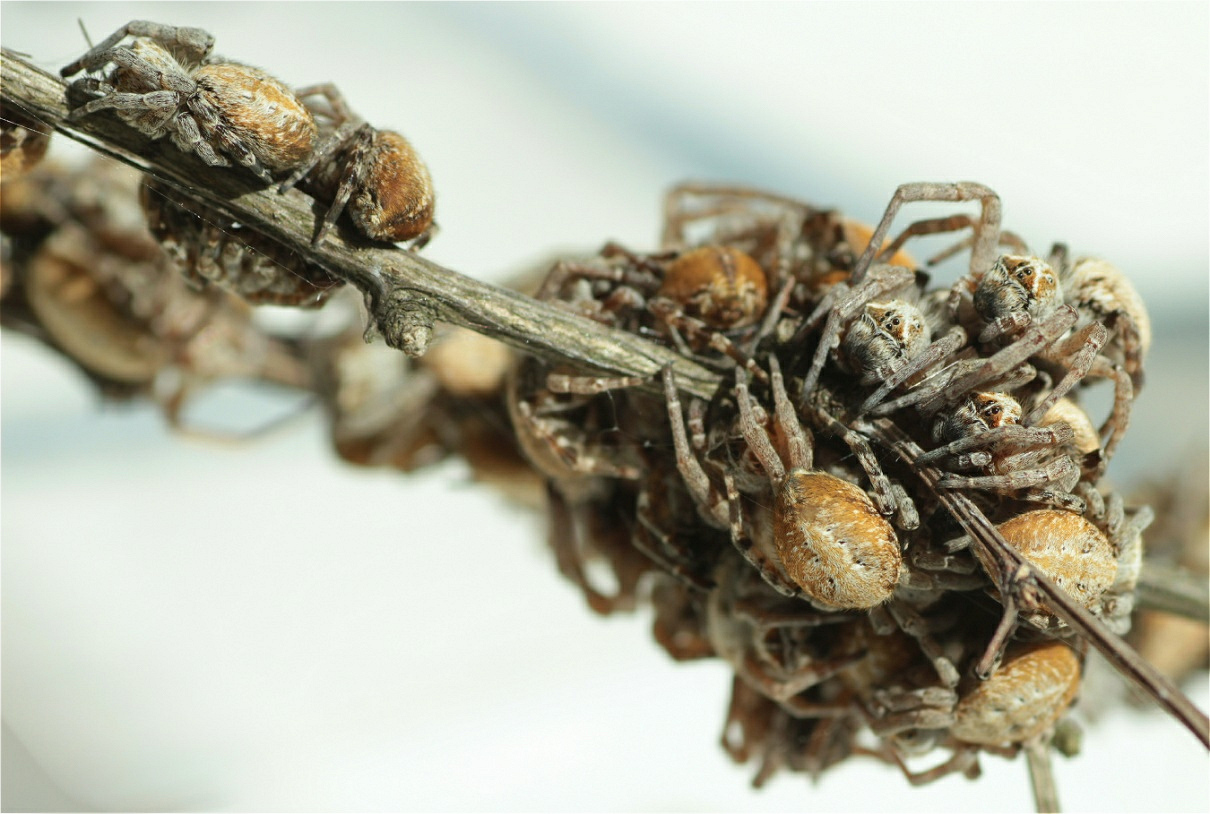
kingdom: Animalia
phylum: Arthropoda
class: Arachnida
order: Araneae
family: Eresidae
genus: Stegodyphus
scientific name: Stegodyphus dumicola
